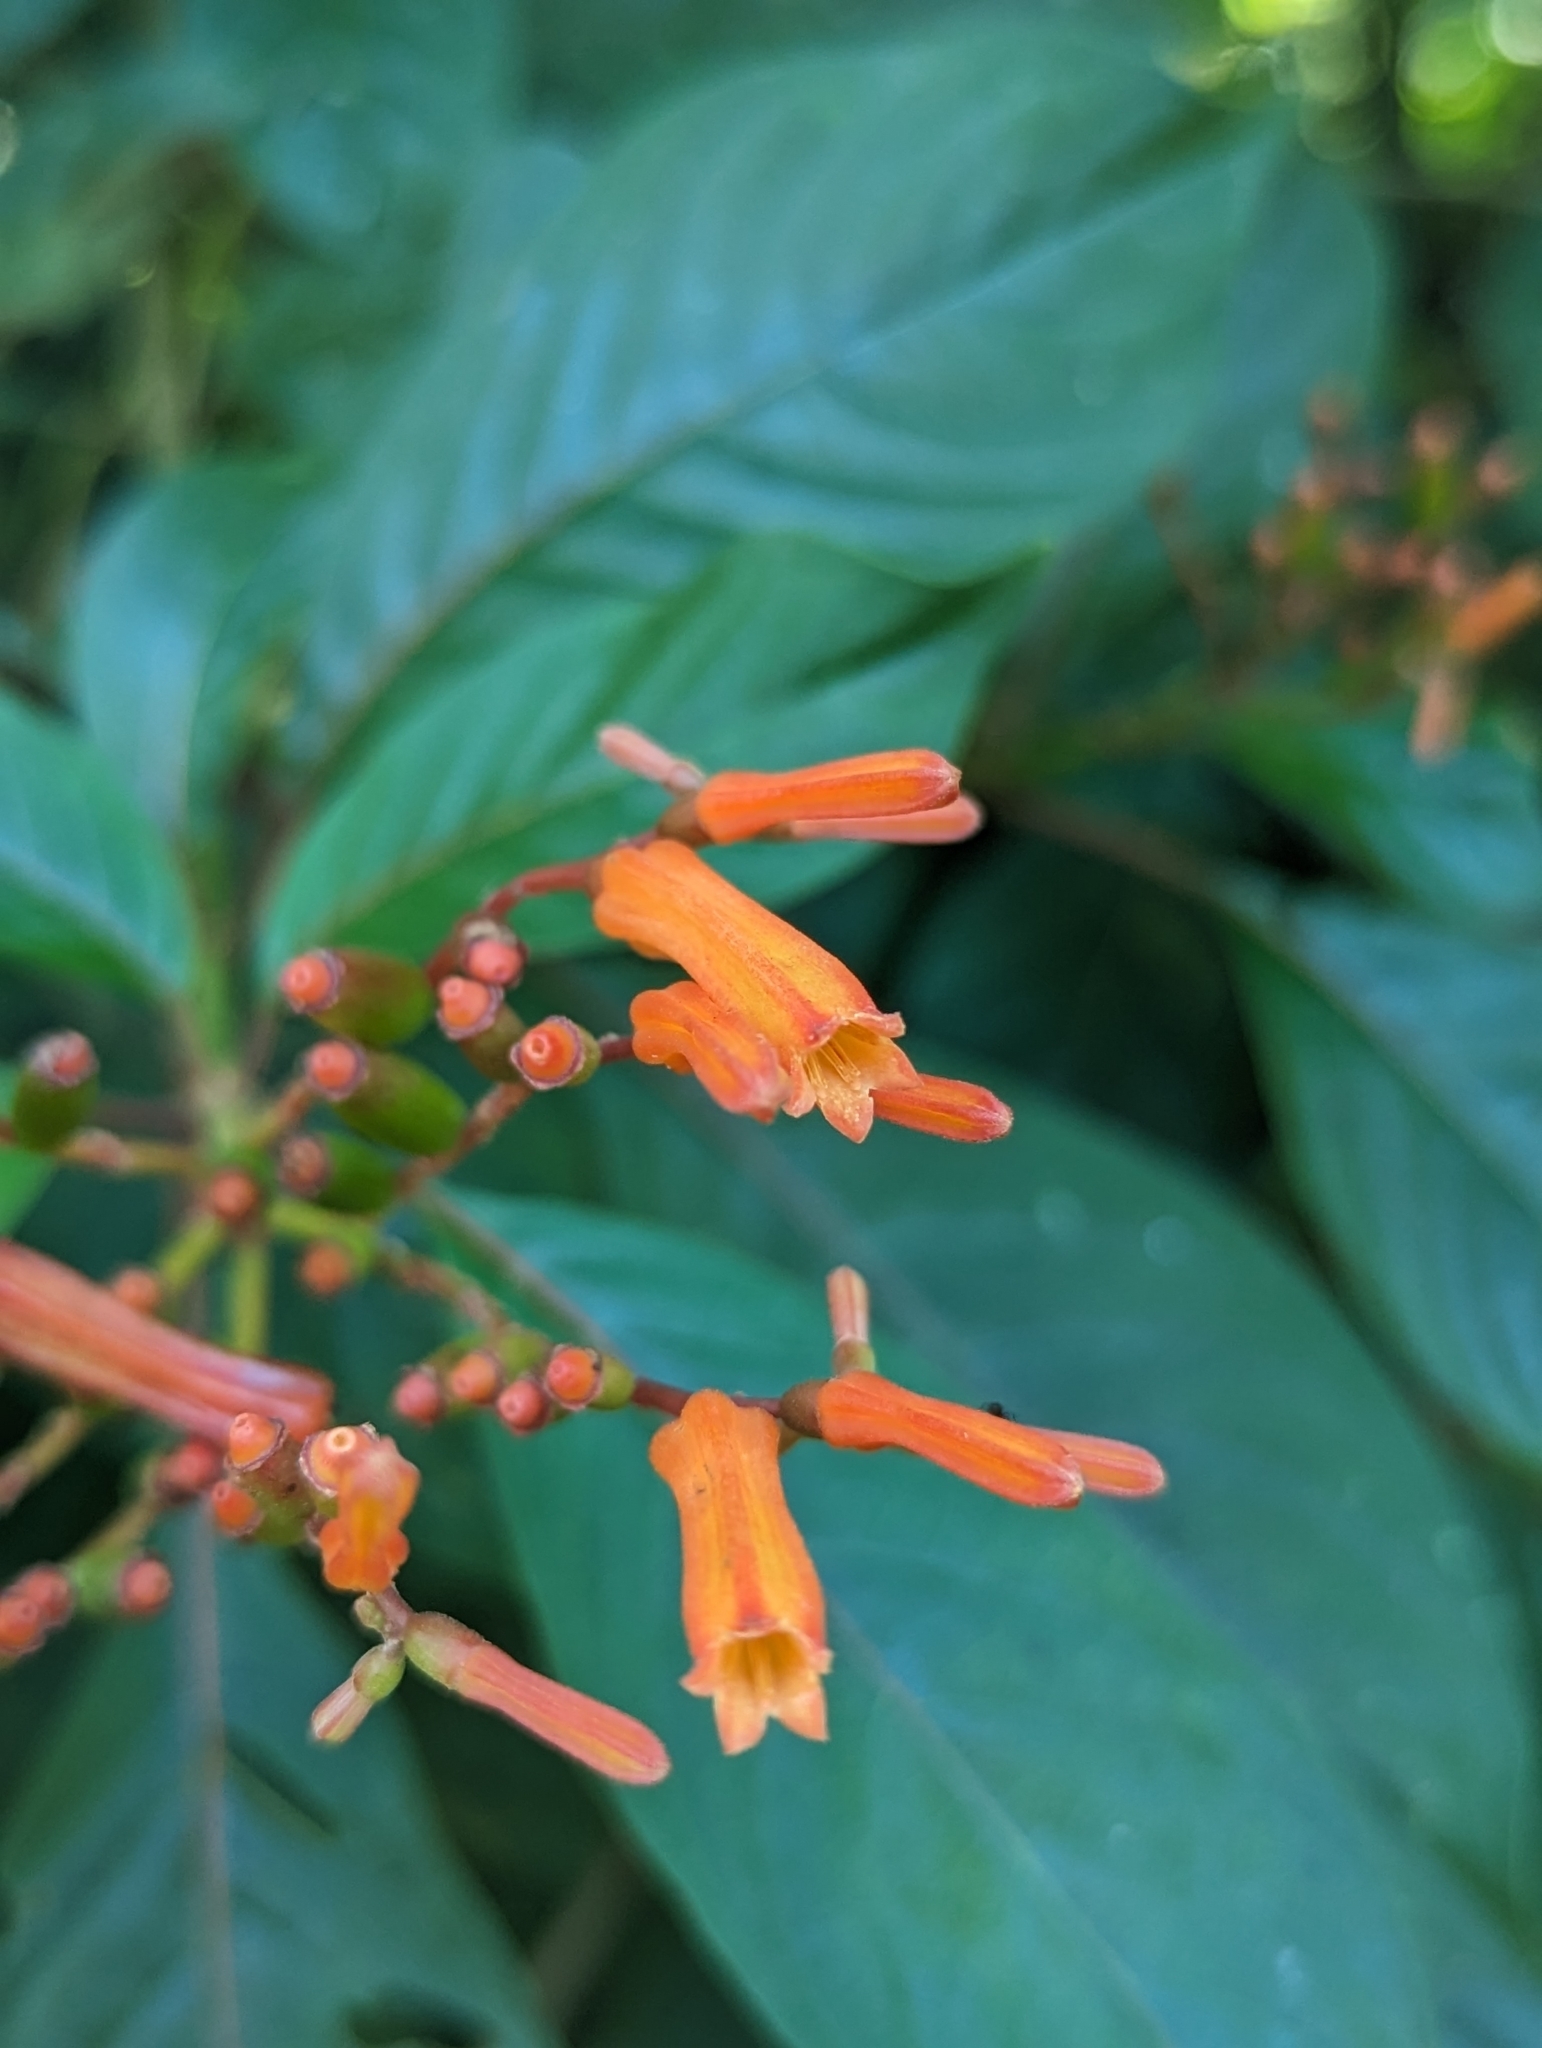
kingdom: Plantae
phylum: Tracheophyta
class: Magnoliopsida
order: Gentianales
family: Rubiaceae
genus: Hamelia
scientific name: Hamelia patens
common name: Redhead
